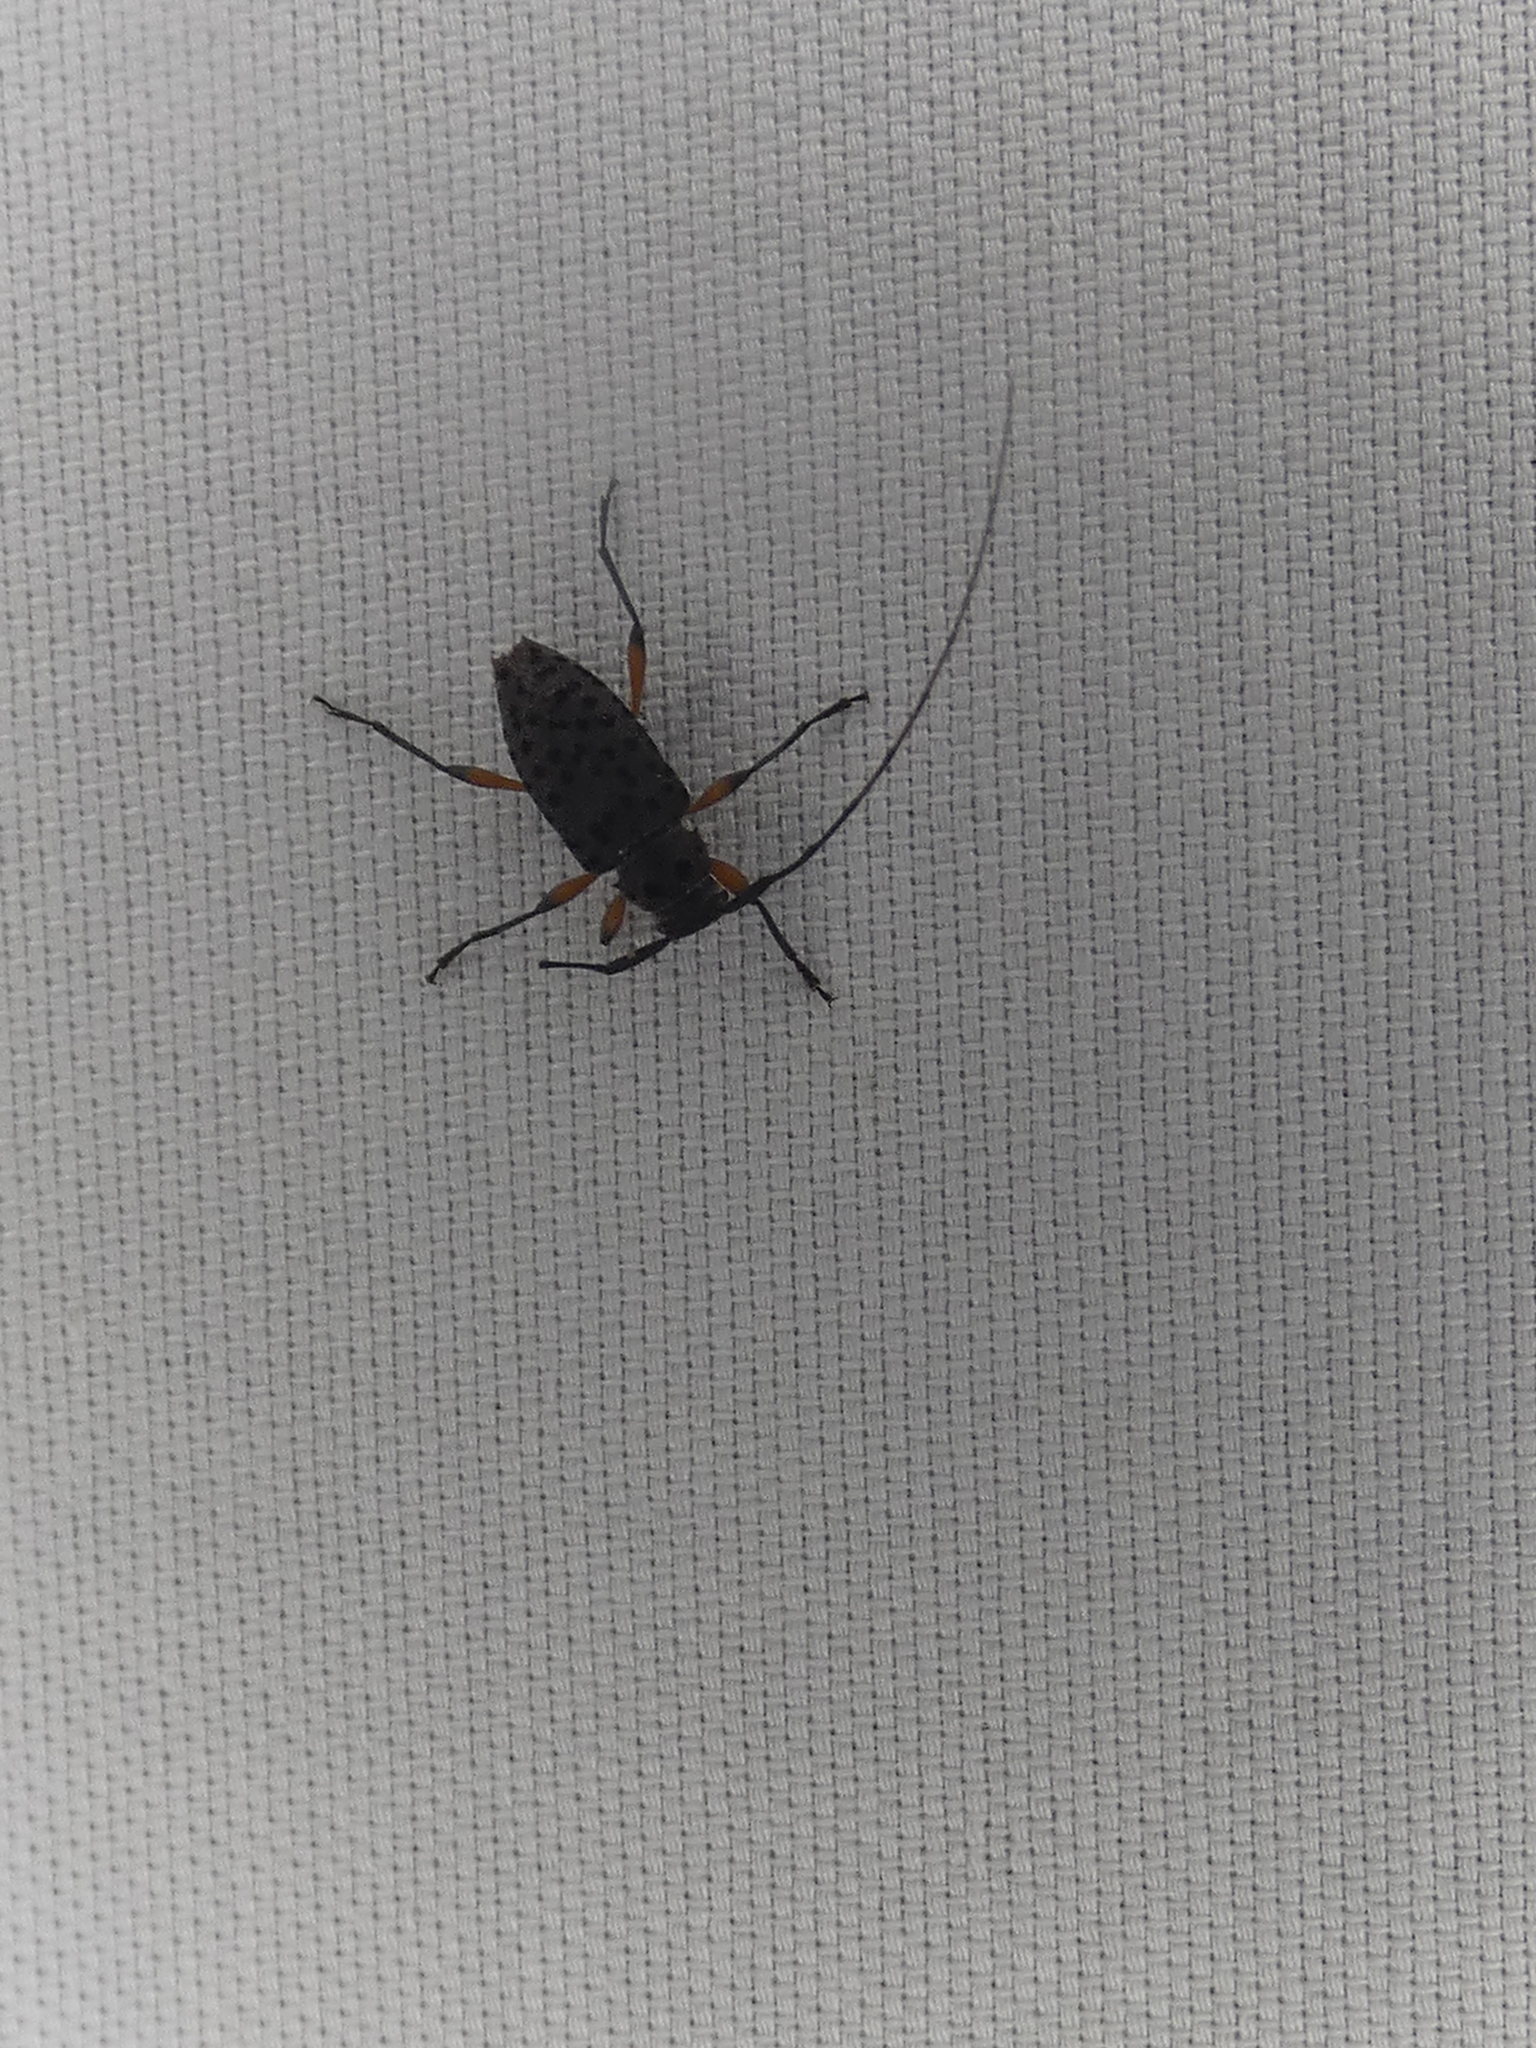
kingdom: Animalia
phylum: Arthropoda
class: Insecta
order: Coleoptera
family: Cerambycidae
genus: Hyperplatys
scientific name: Hyperplatys aspersa
